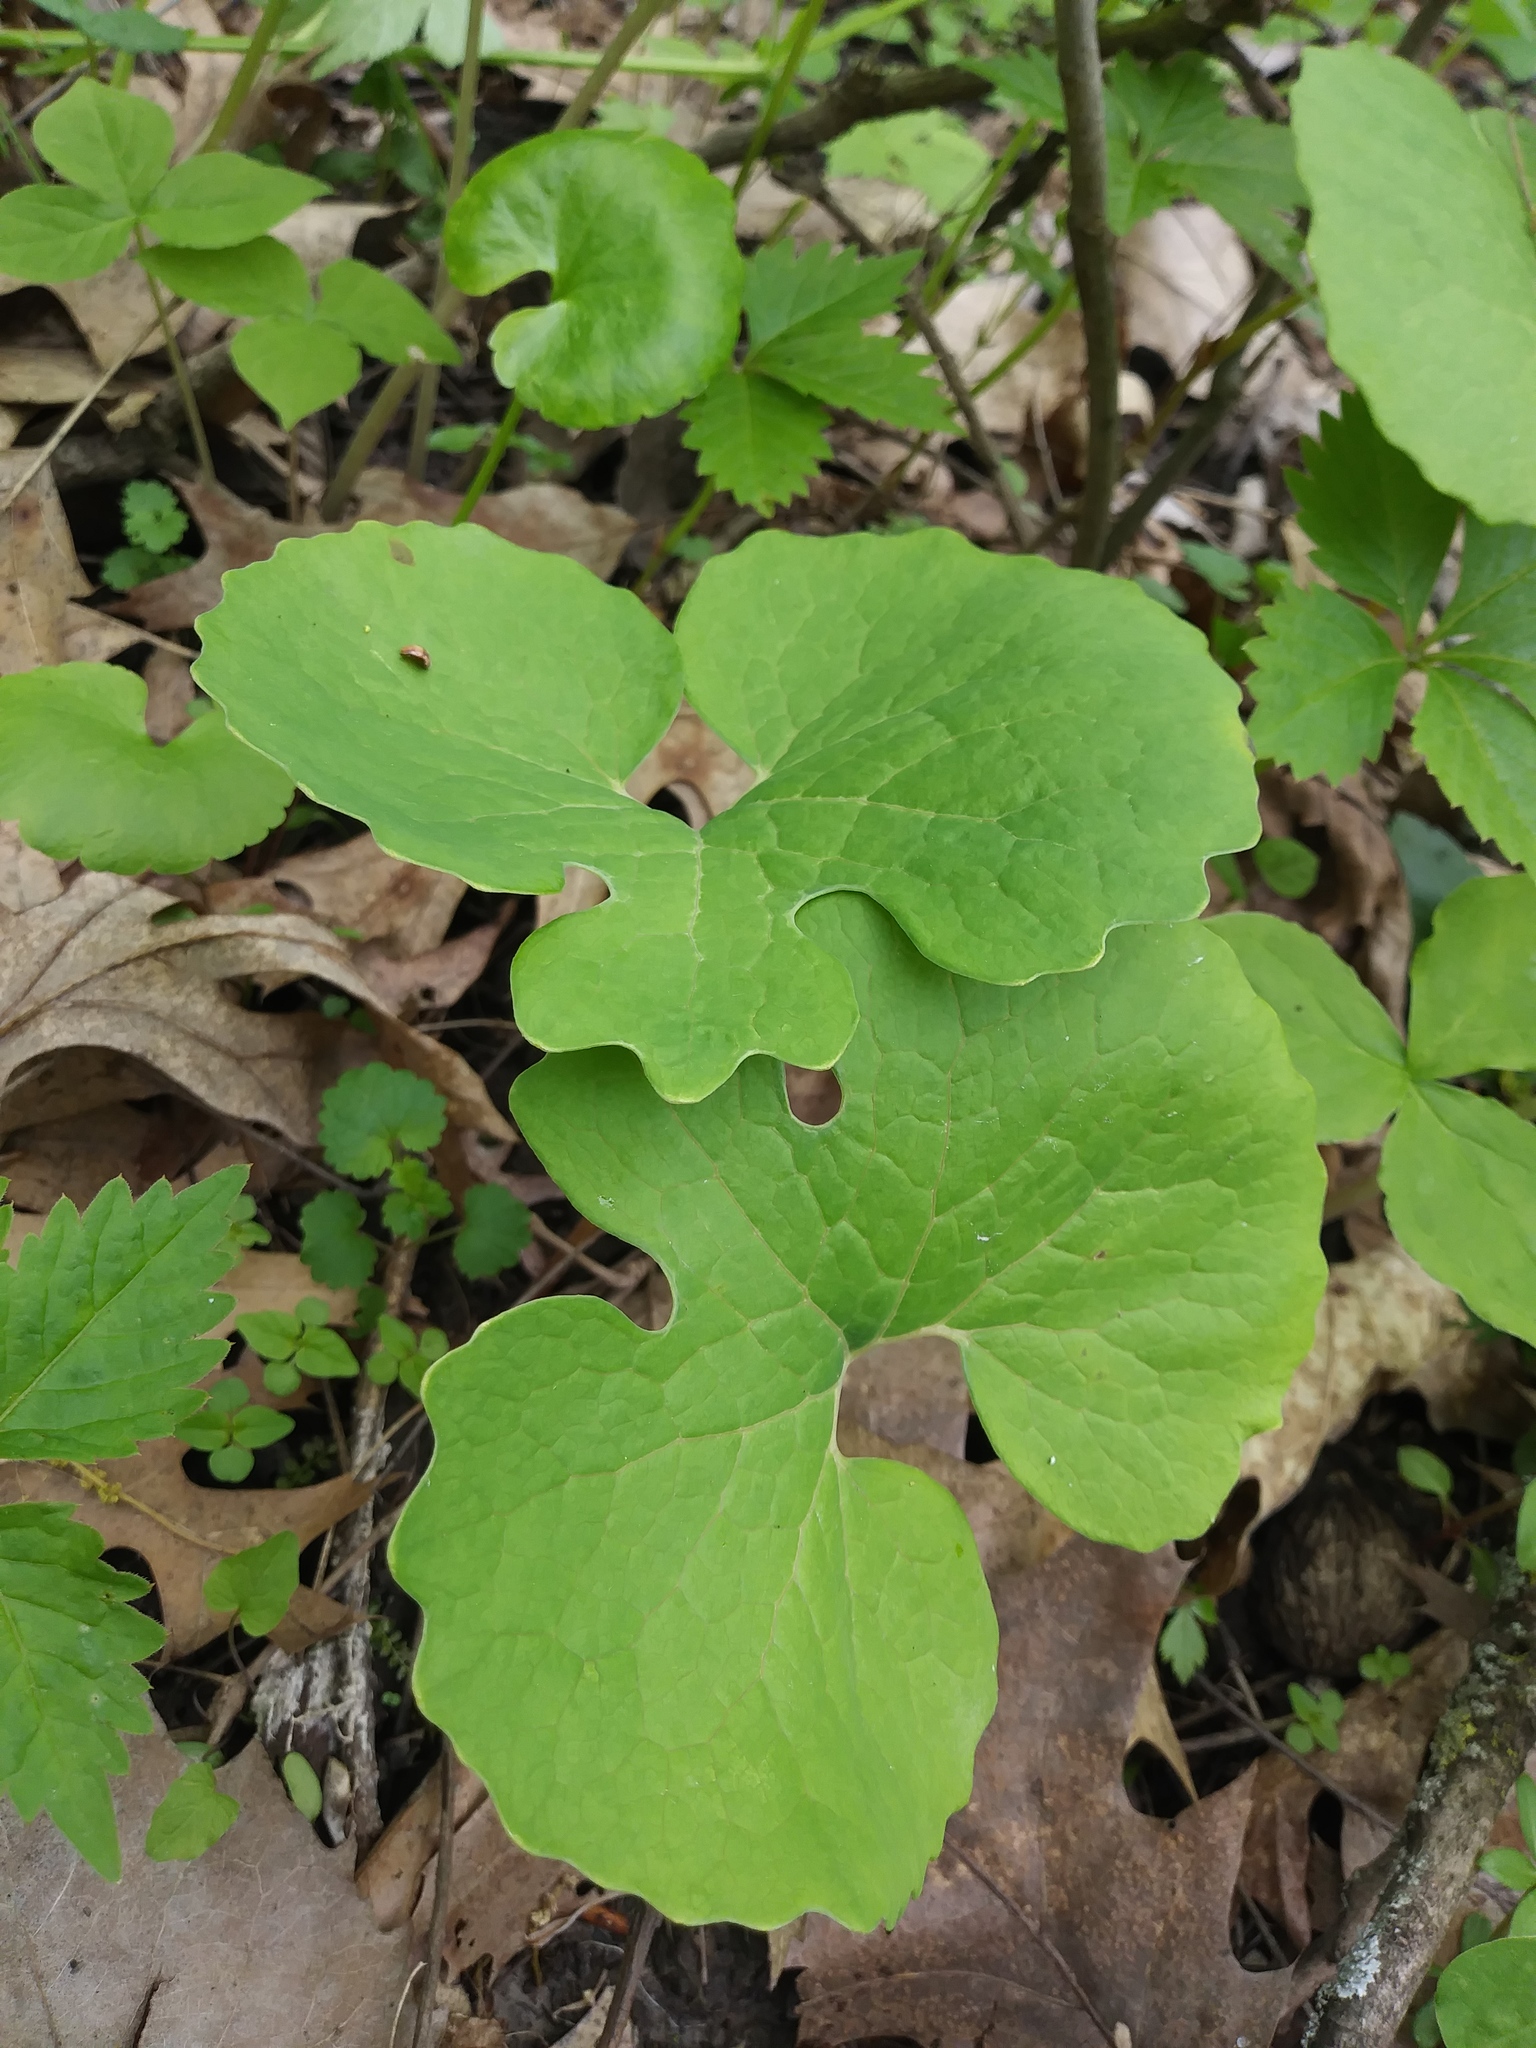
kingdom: Plantae
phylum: Tracheophyta
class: Magnoliopsida
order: Ranunculales
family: Papaveraceae
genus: Sanguinaria
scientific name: Sanguinaria canadensis
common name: Bloodroot
